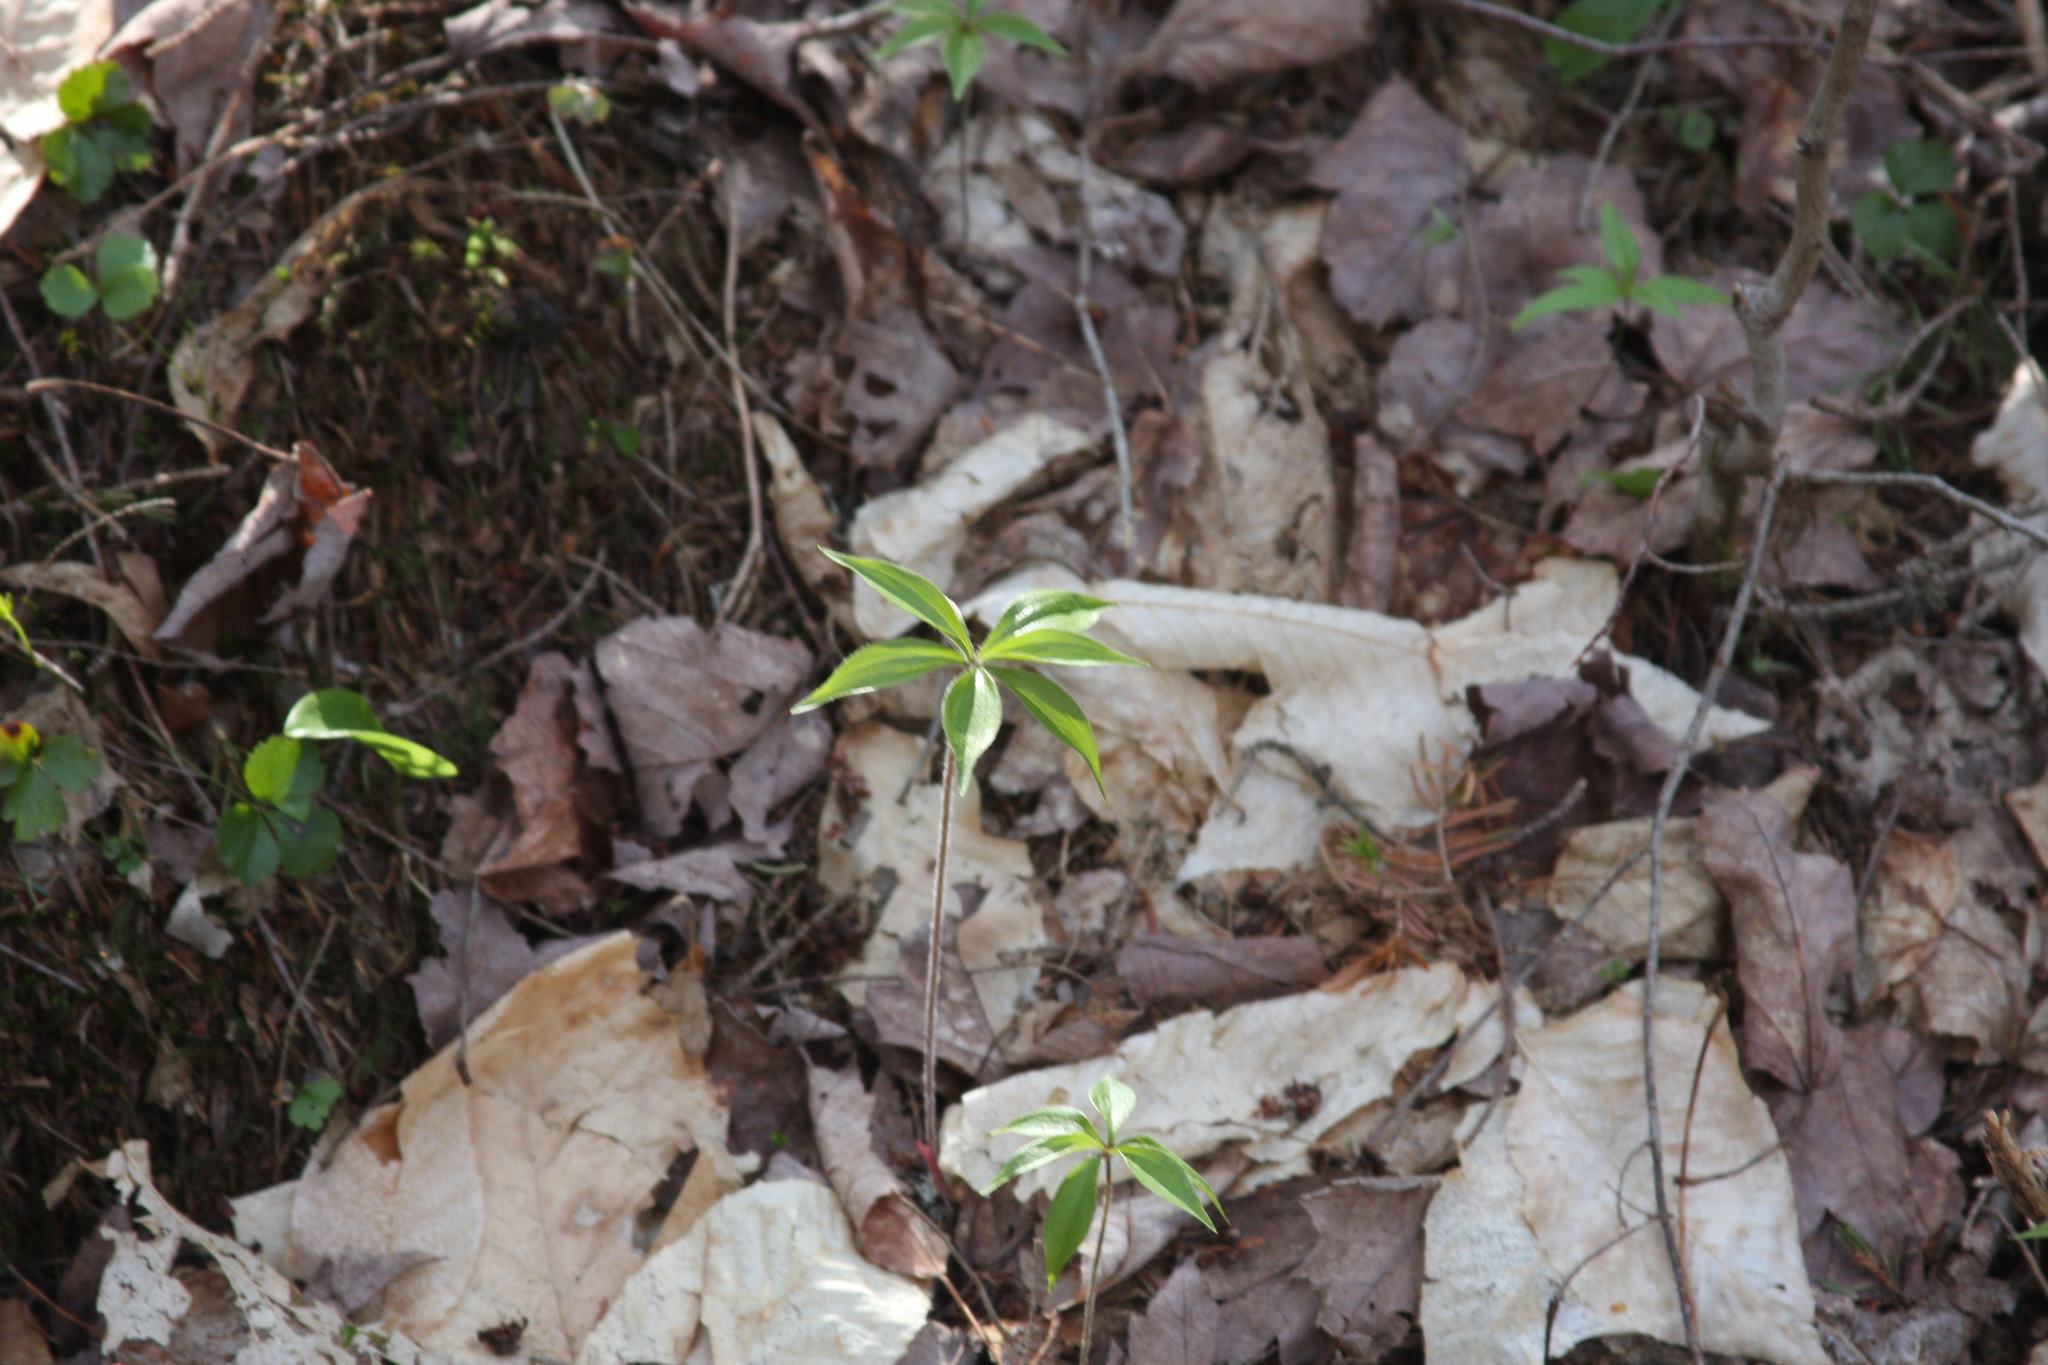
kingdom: Plantae
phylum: Tracheophyta
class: Magnoliopsida
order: Ericales
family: Primulaceae
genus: Lysimachia
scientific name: Lysimachia borealis
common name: American starflower
